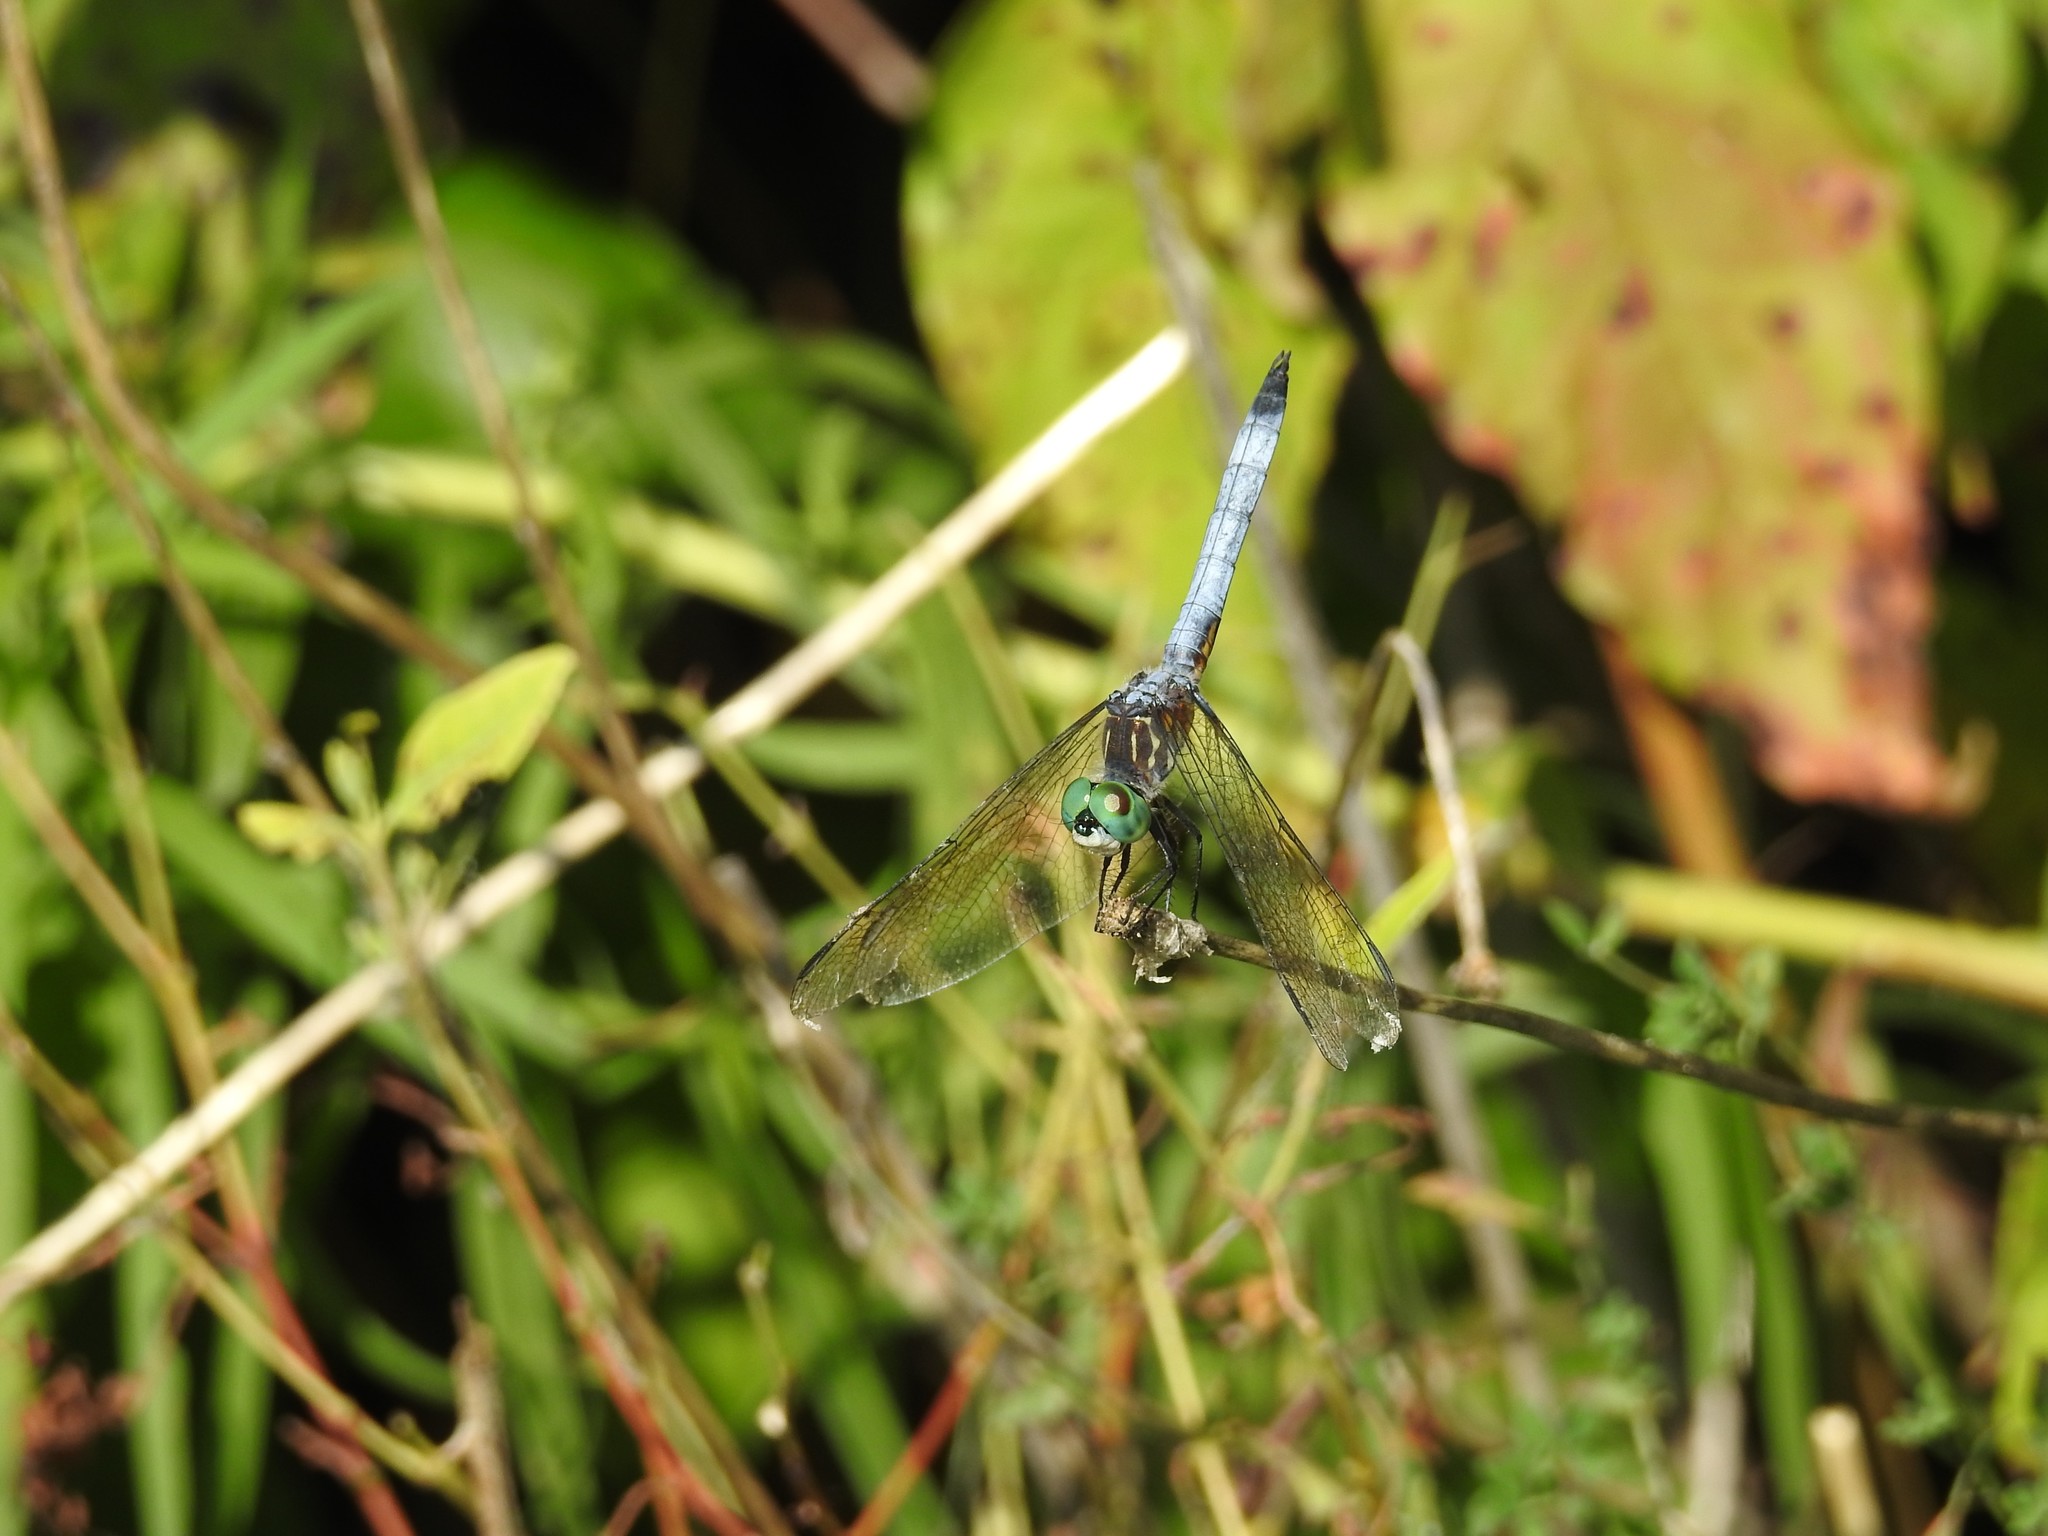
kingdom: Animalia
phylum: Arthropoda
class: Insecta
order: Odonata
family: Libellulidae
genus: Pachydiplax
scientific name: Pachydiplax longipennis
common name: Blue dasher
